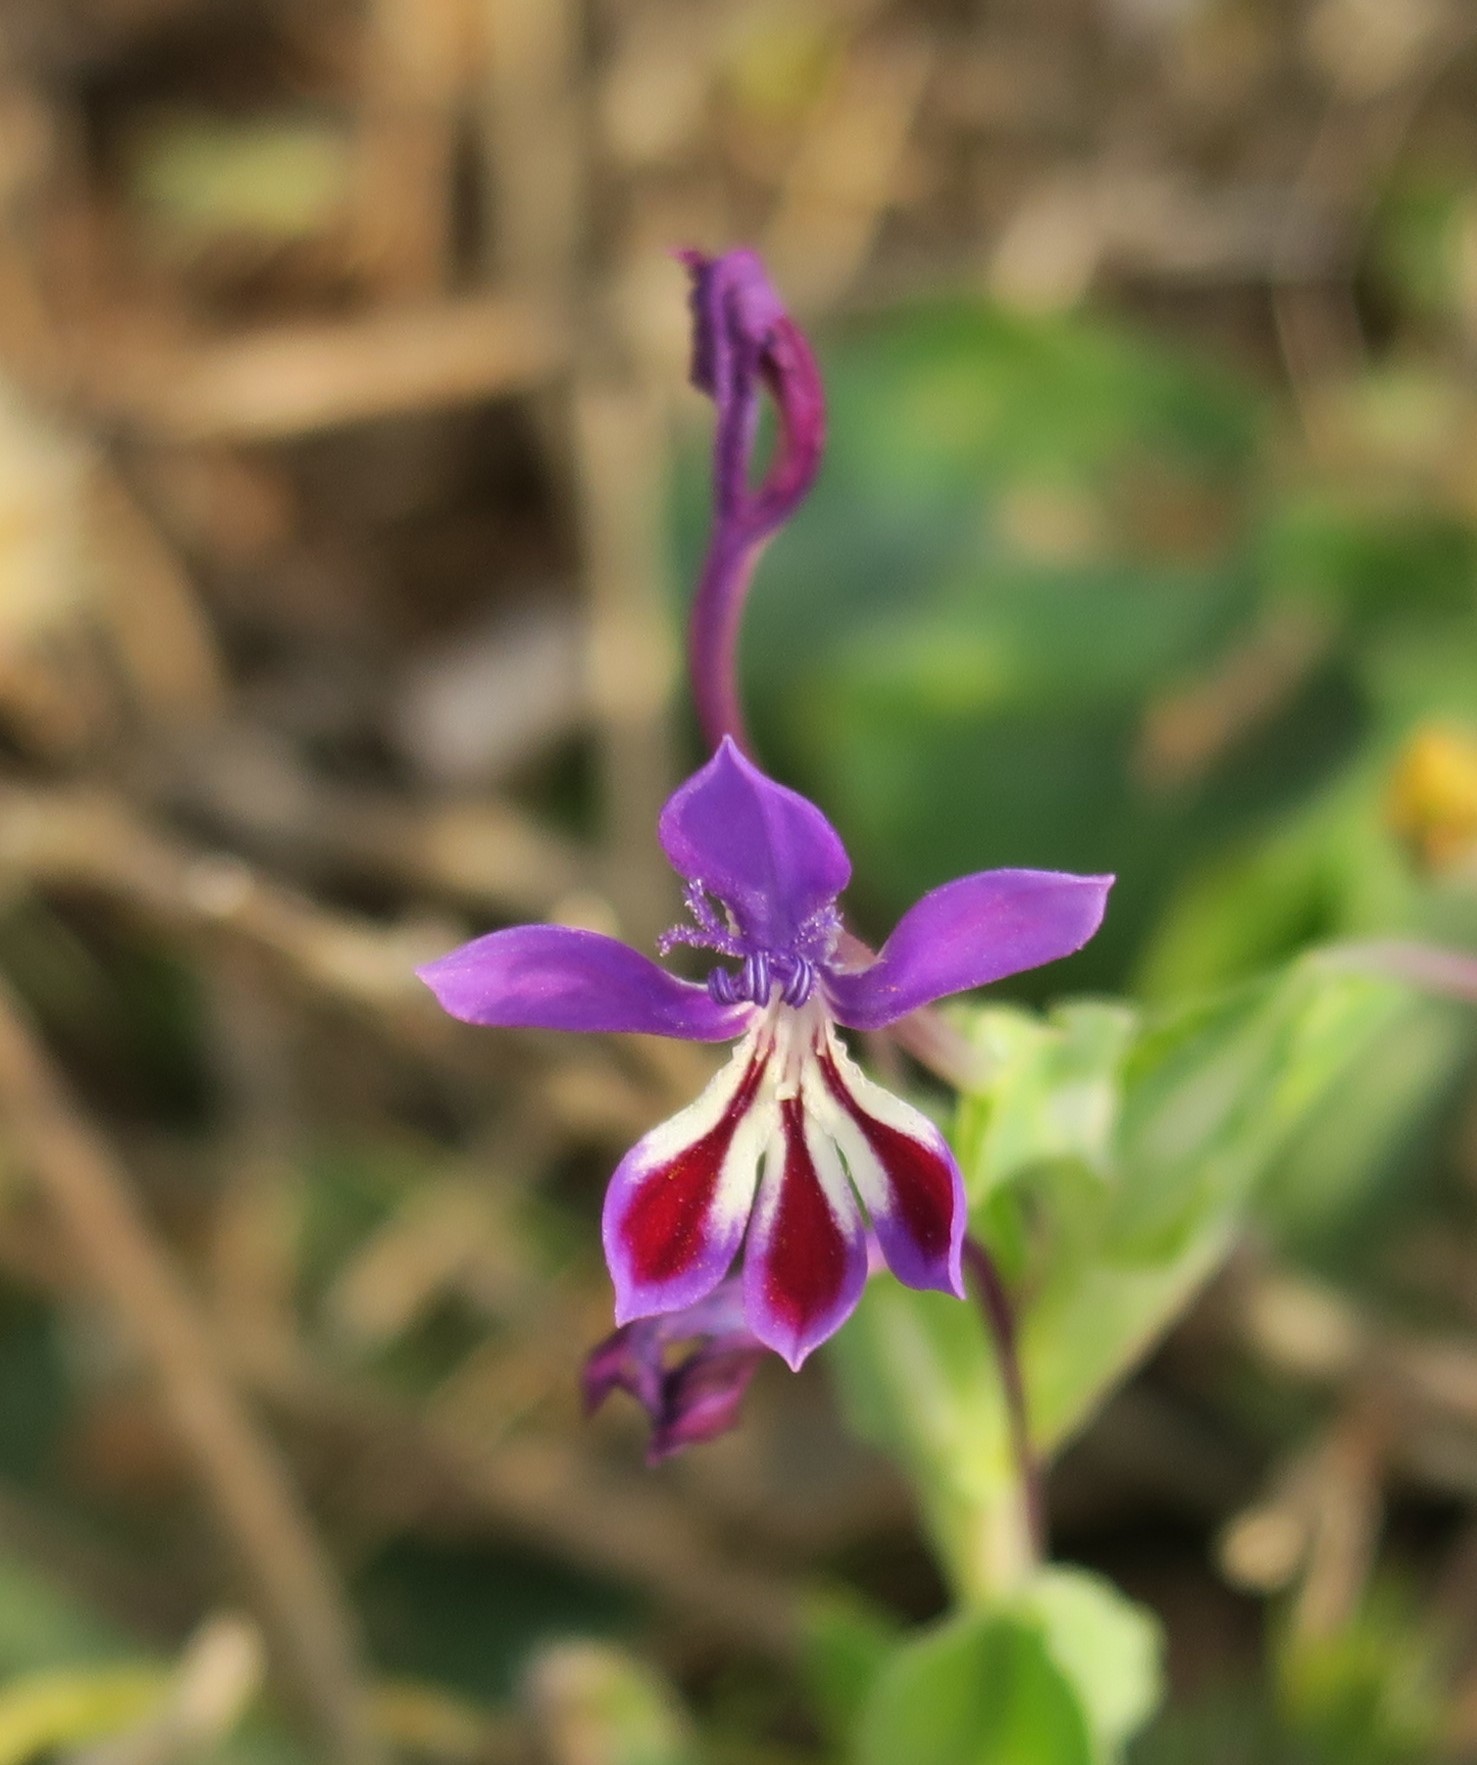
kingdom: Plantae
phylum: Tracheophyta
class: Liliopsida
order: Asparagales
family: Iridaceae
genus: Lapeirousia
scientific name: Lapeirousia jacquinii
